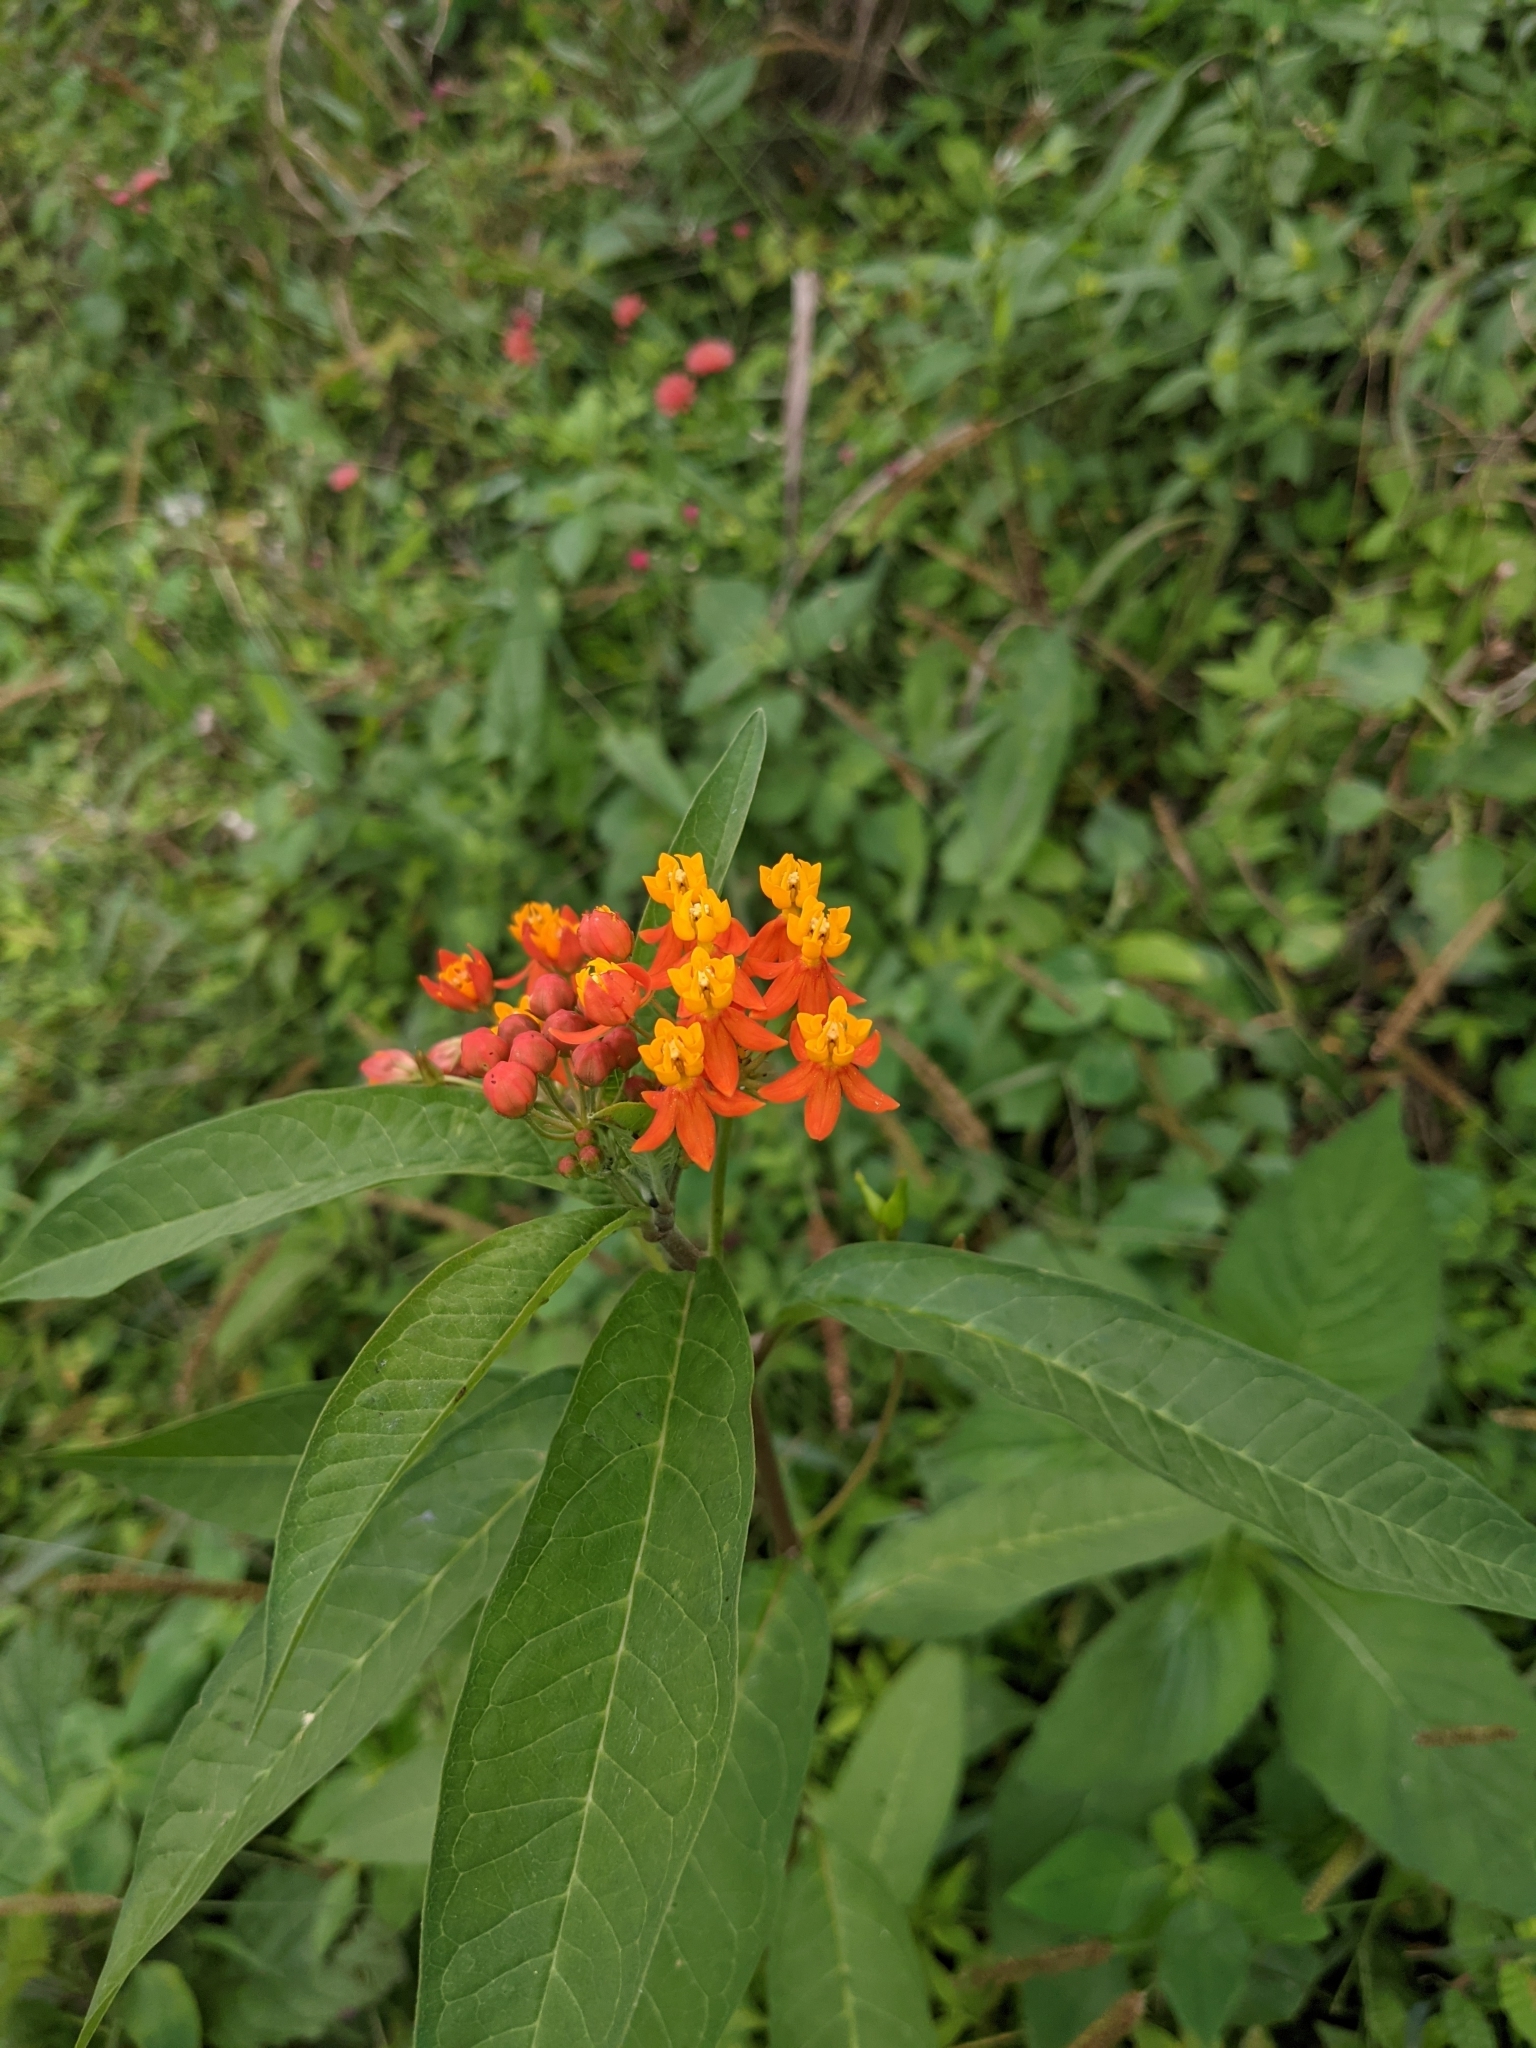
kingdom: Plantae
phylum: Tracheophyta
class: Magnoliopsida
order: Gentianales
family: Apocynaceae
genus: Asclepias
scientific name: Asclepias curassavica
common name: Bloodflower
